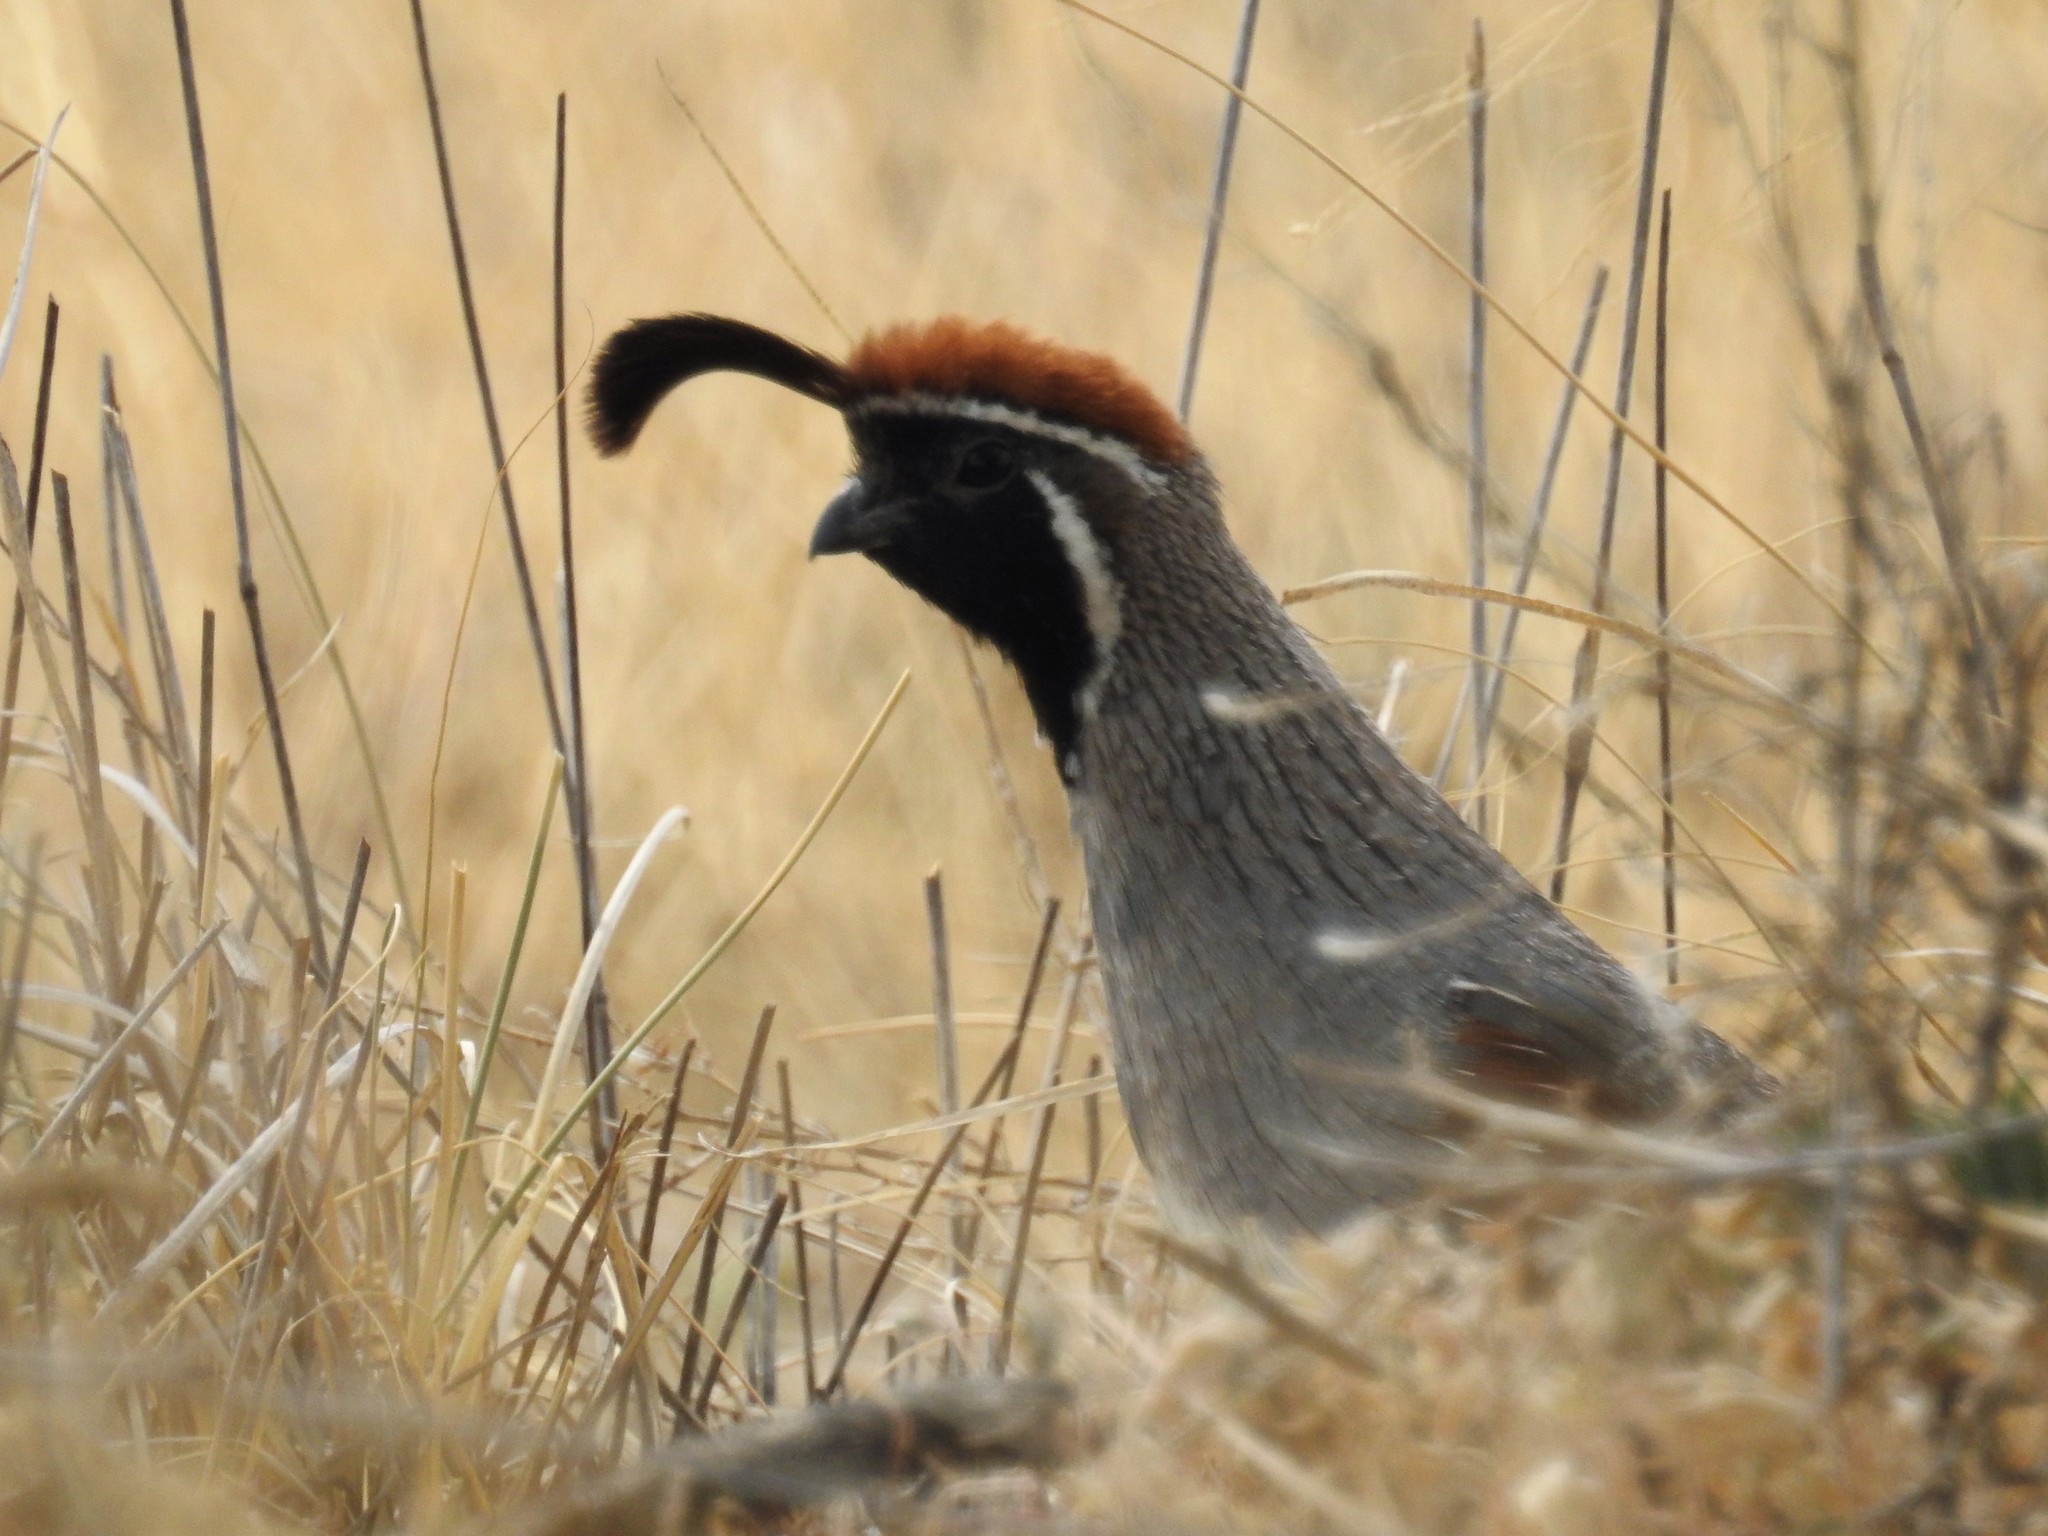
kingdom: Animalia
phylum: Chordata
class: Aves
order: Galliformes
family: Odontophoridae
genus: Callipepla
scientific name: Callipepla gambelii
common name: Gambel's quail
